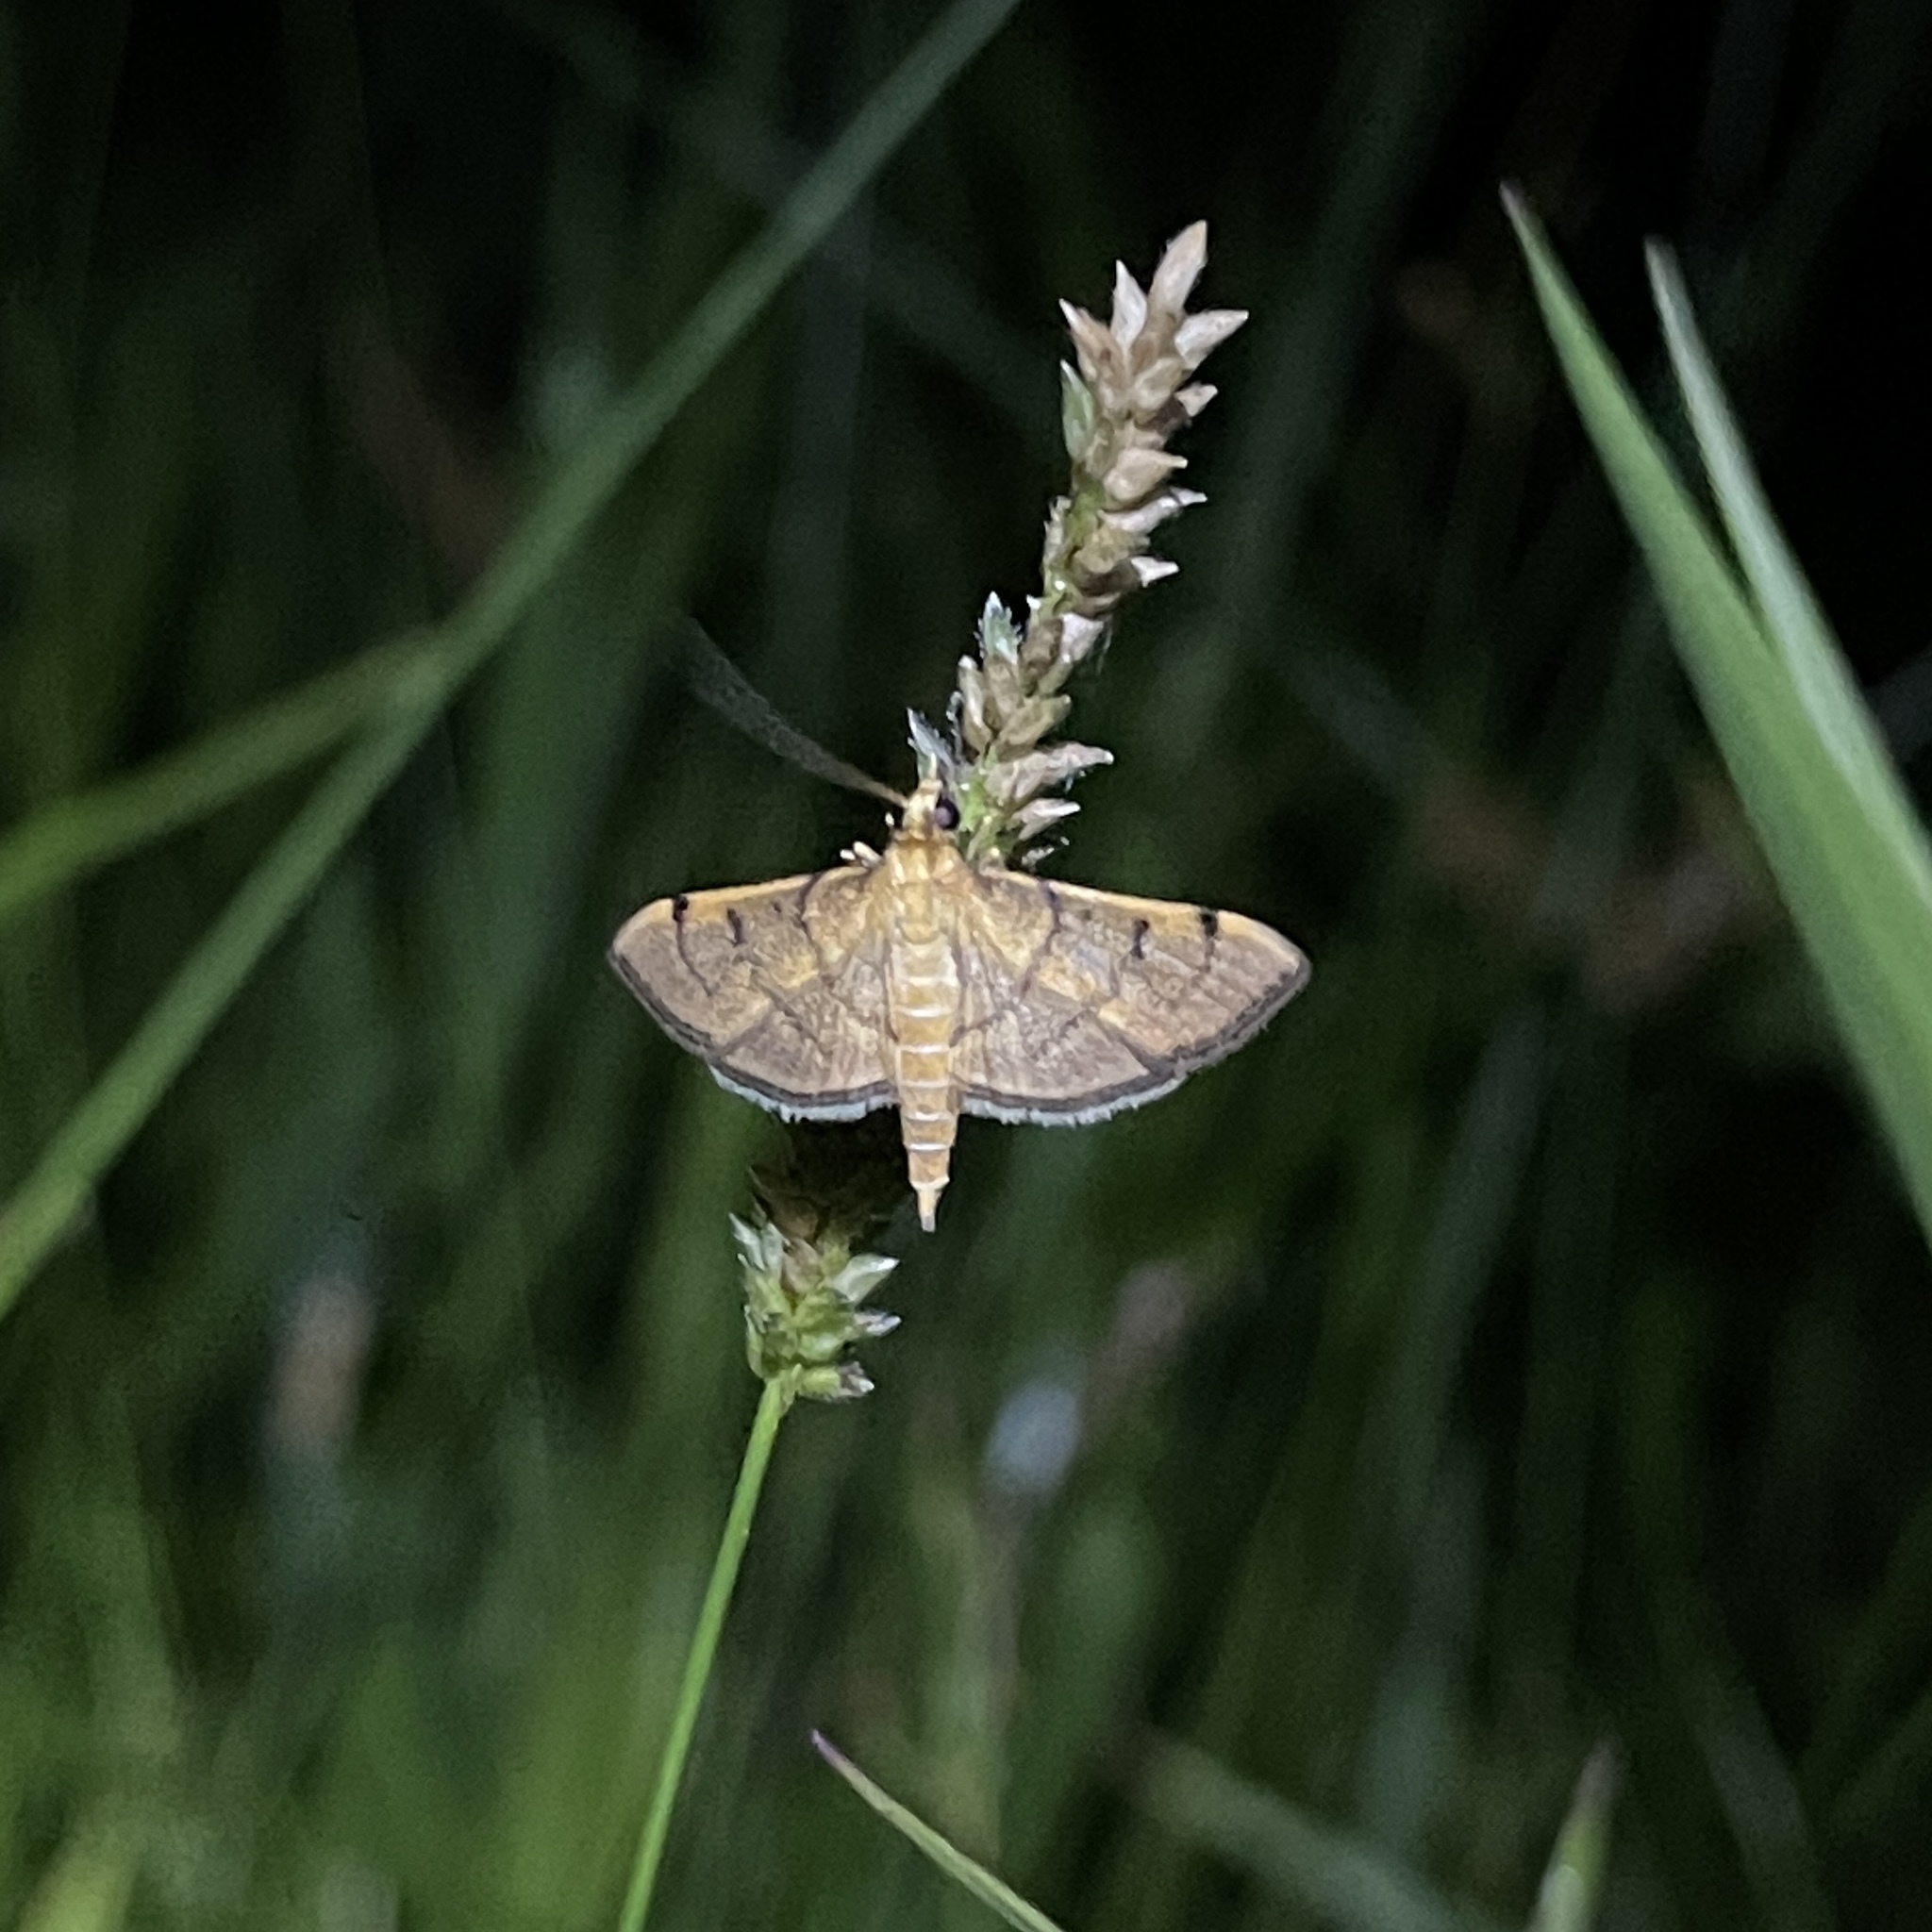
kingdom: Animalia
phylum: Arthropoda
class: Insecta
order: Lepidoptera
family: Crambidae
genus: Omiodes
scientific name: Omiodes indicata
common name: Bean-leaf webworm moth
